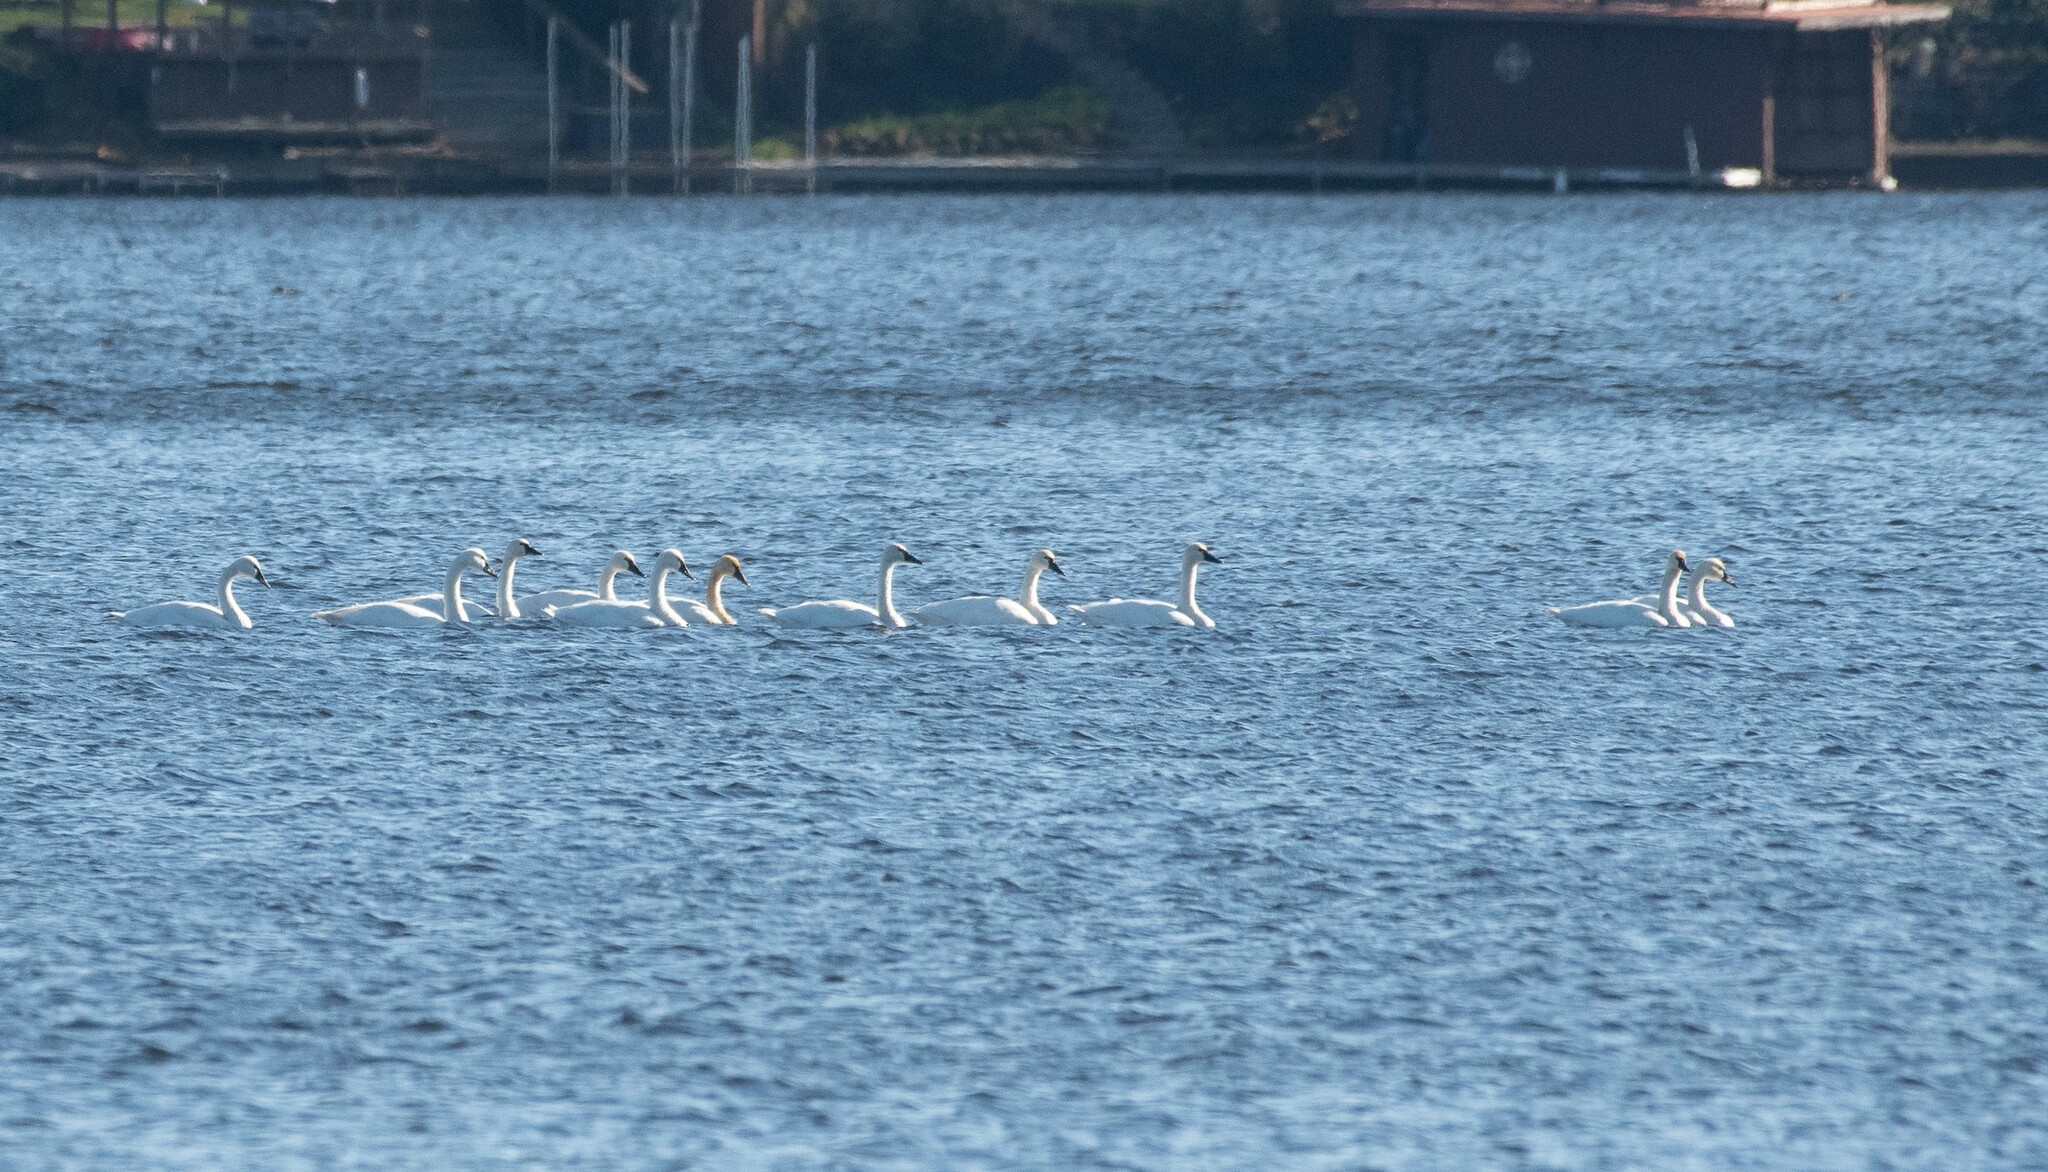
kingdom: Animalia
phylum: Chordata
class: Aves
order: Anseriformes
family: Anatidae
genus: Cygnus
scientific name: Cygnus columbianus
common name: Tundra swan
